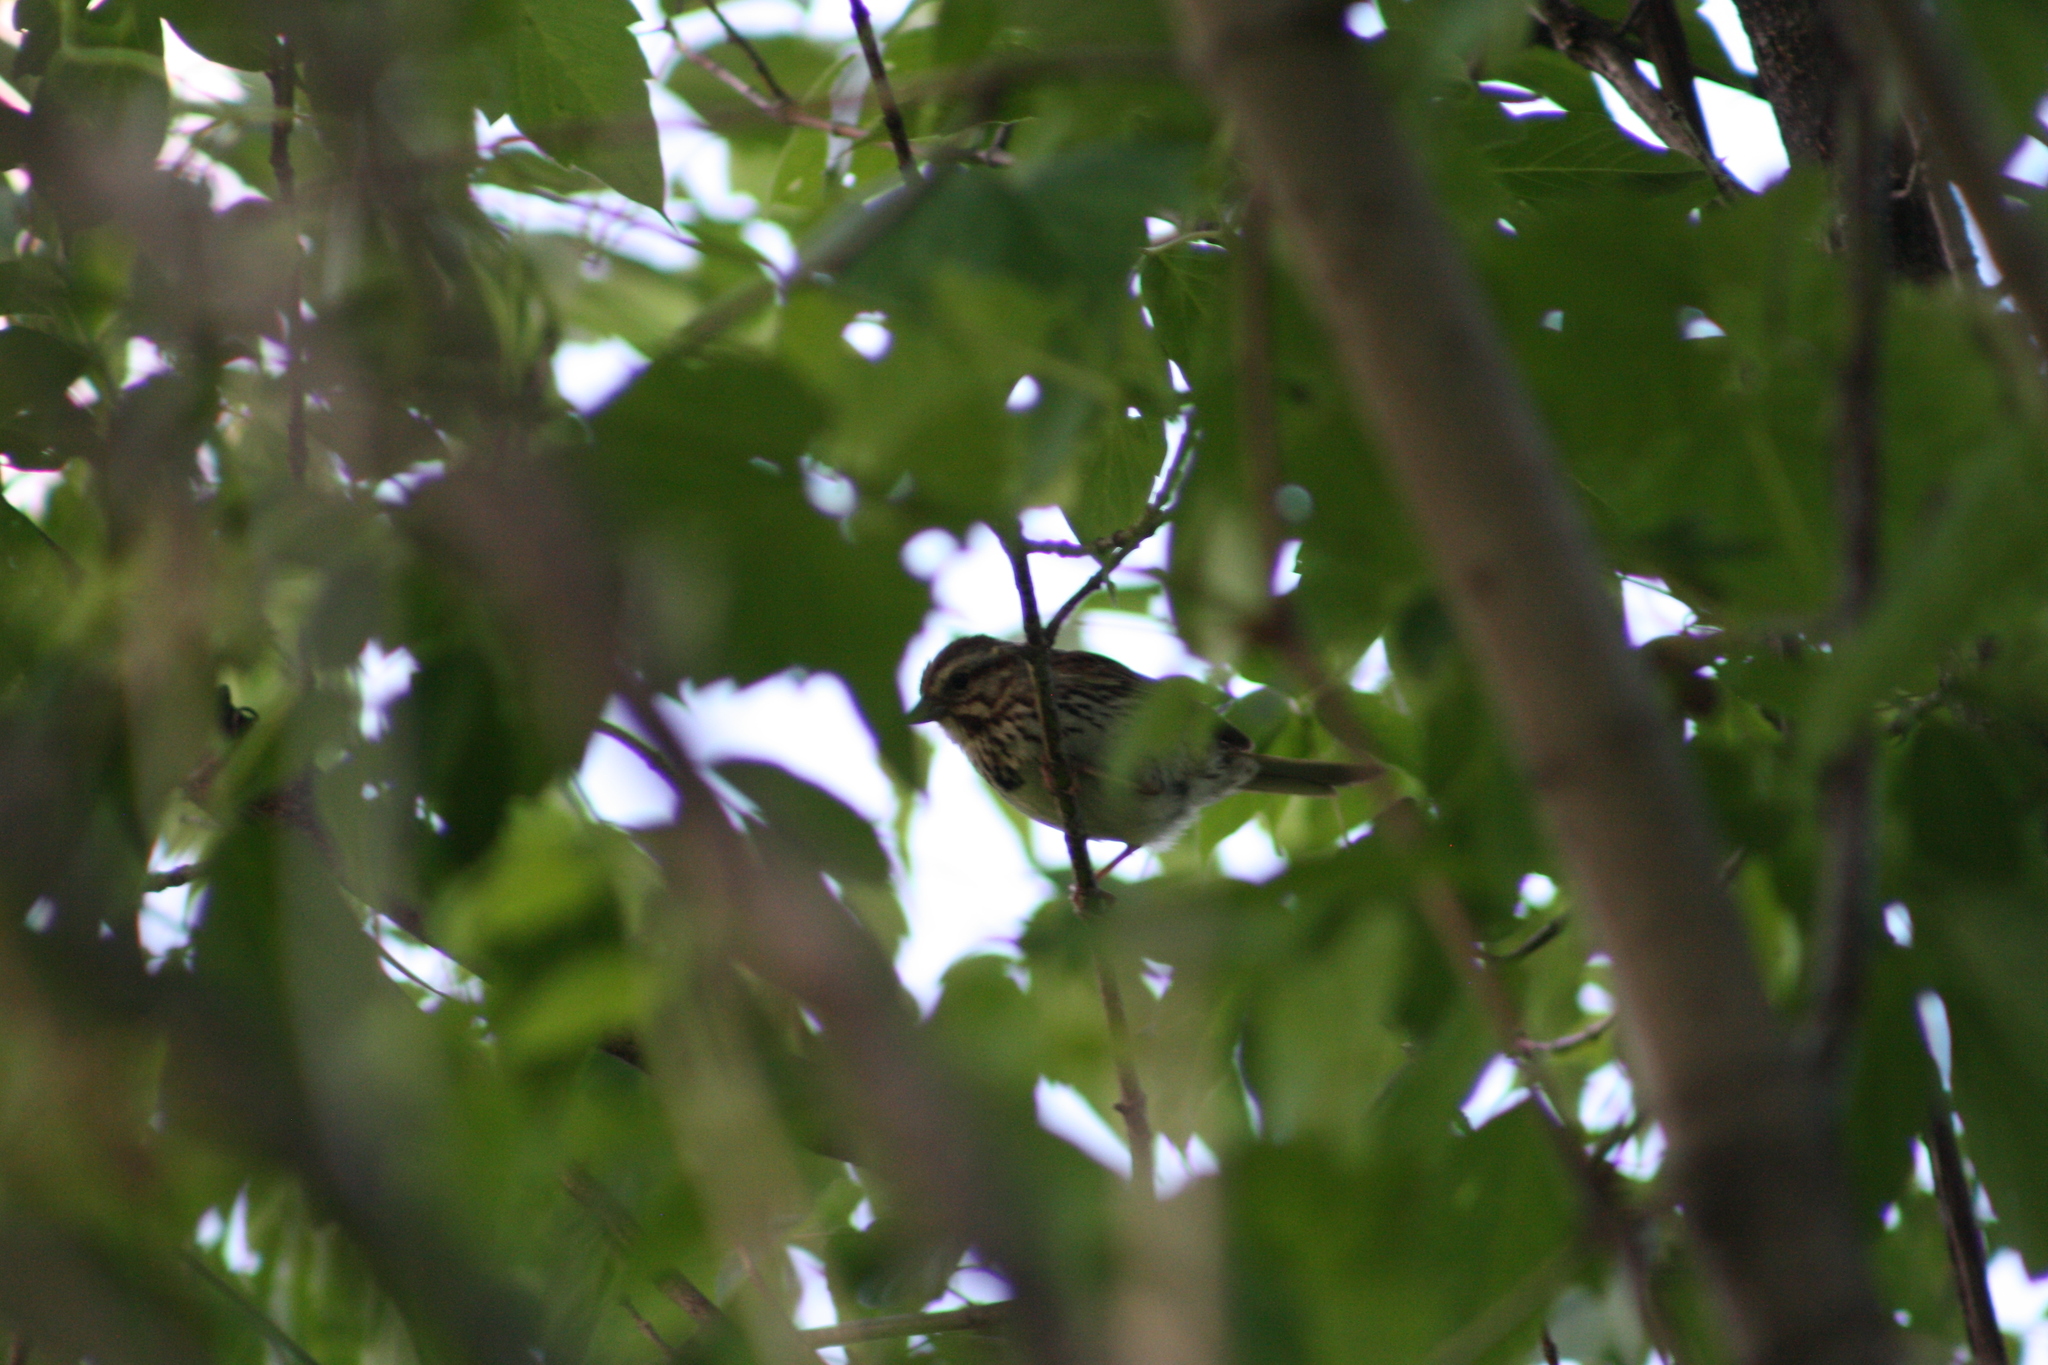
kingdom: Animalia
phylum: Chordata
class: Aves
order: Passeriformes
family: Passerellidae
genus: Melospiza
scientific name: Melospiza melodia
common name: Song sparrow
